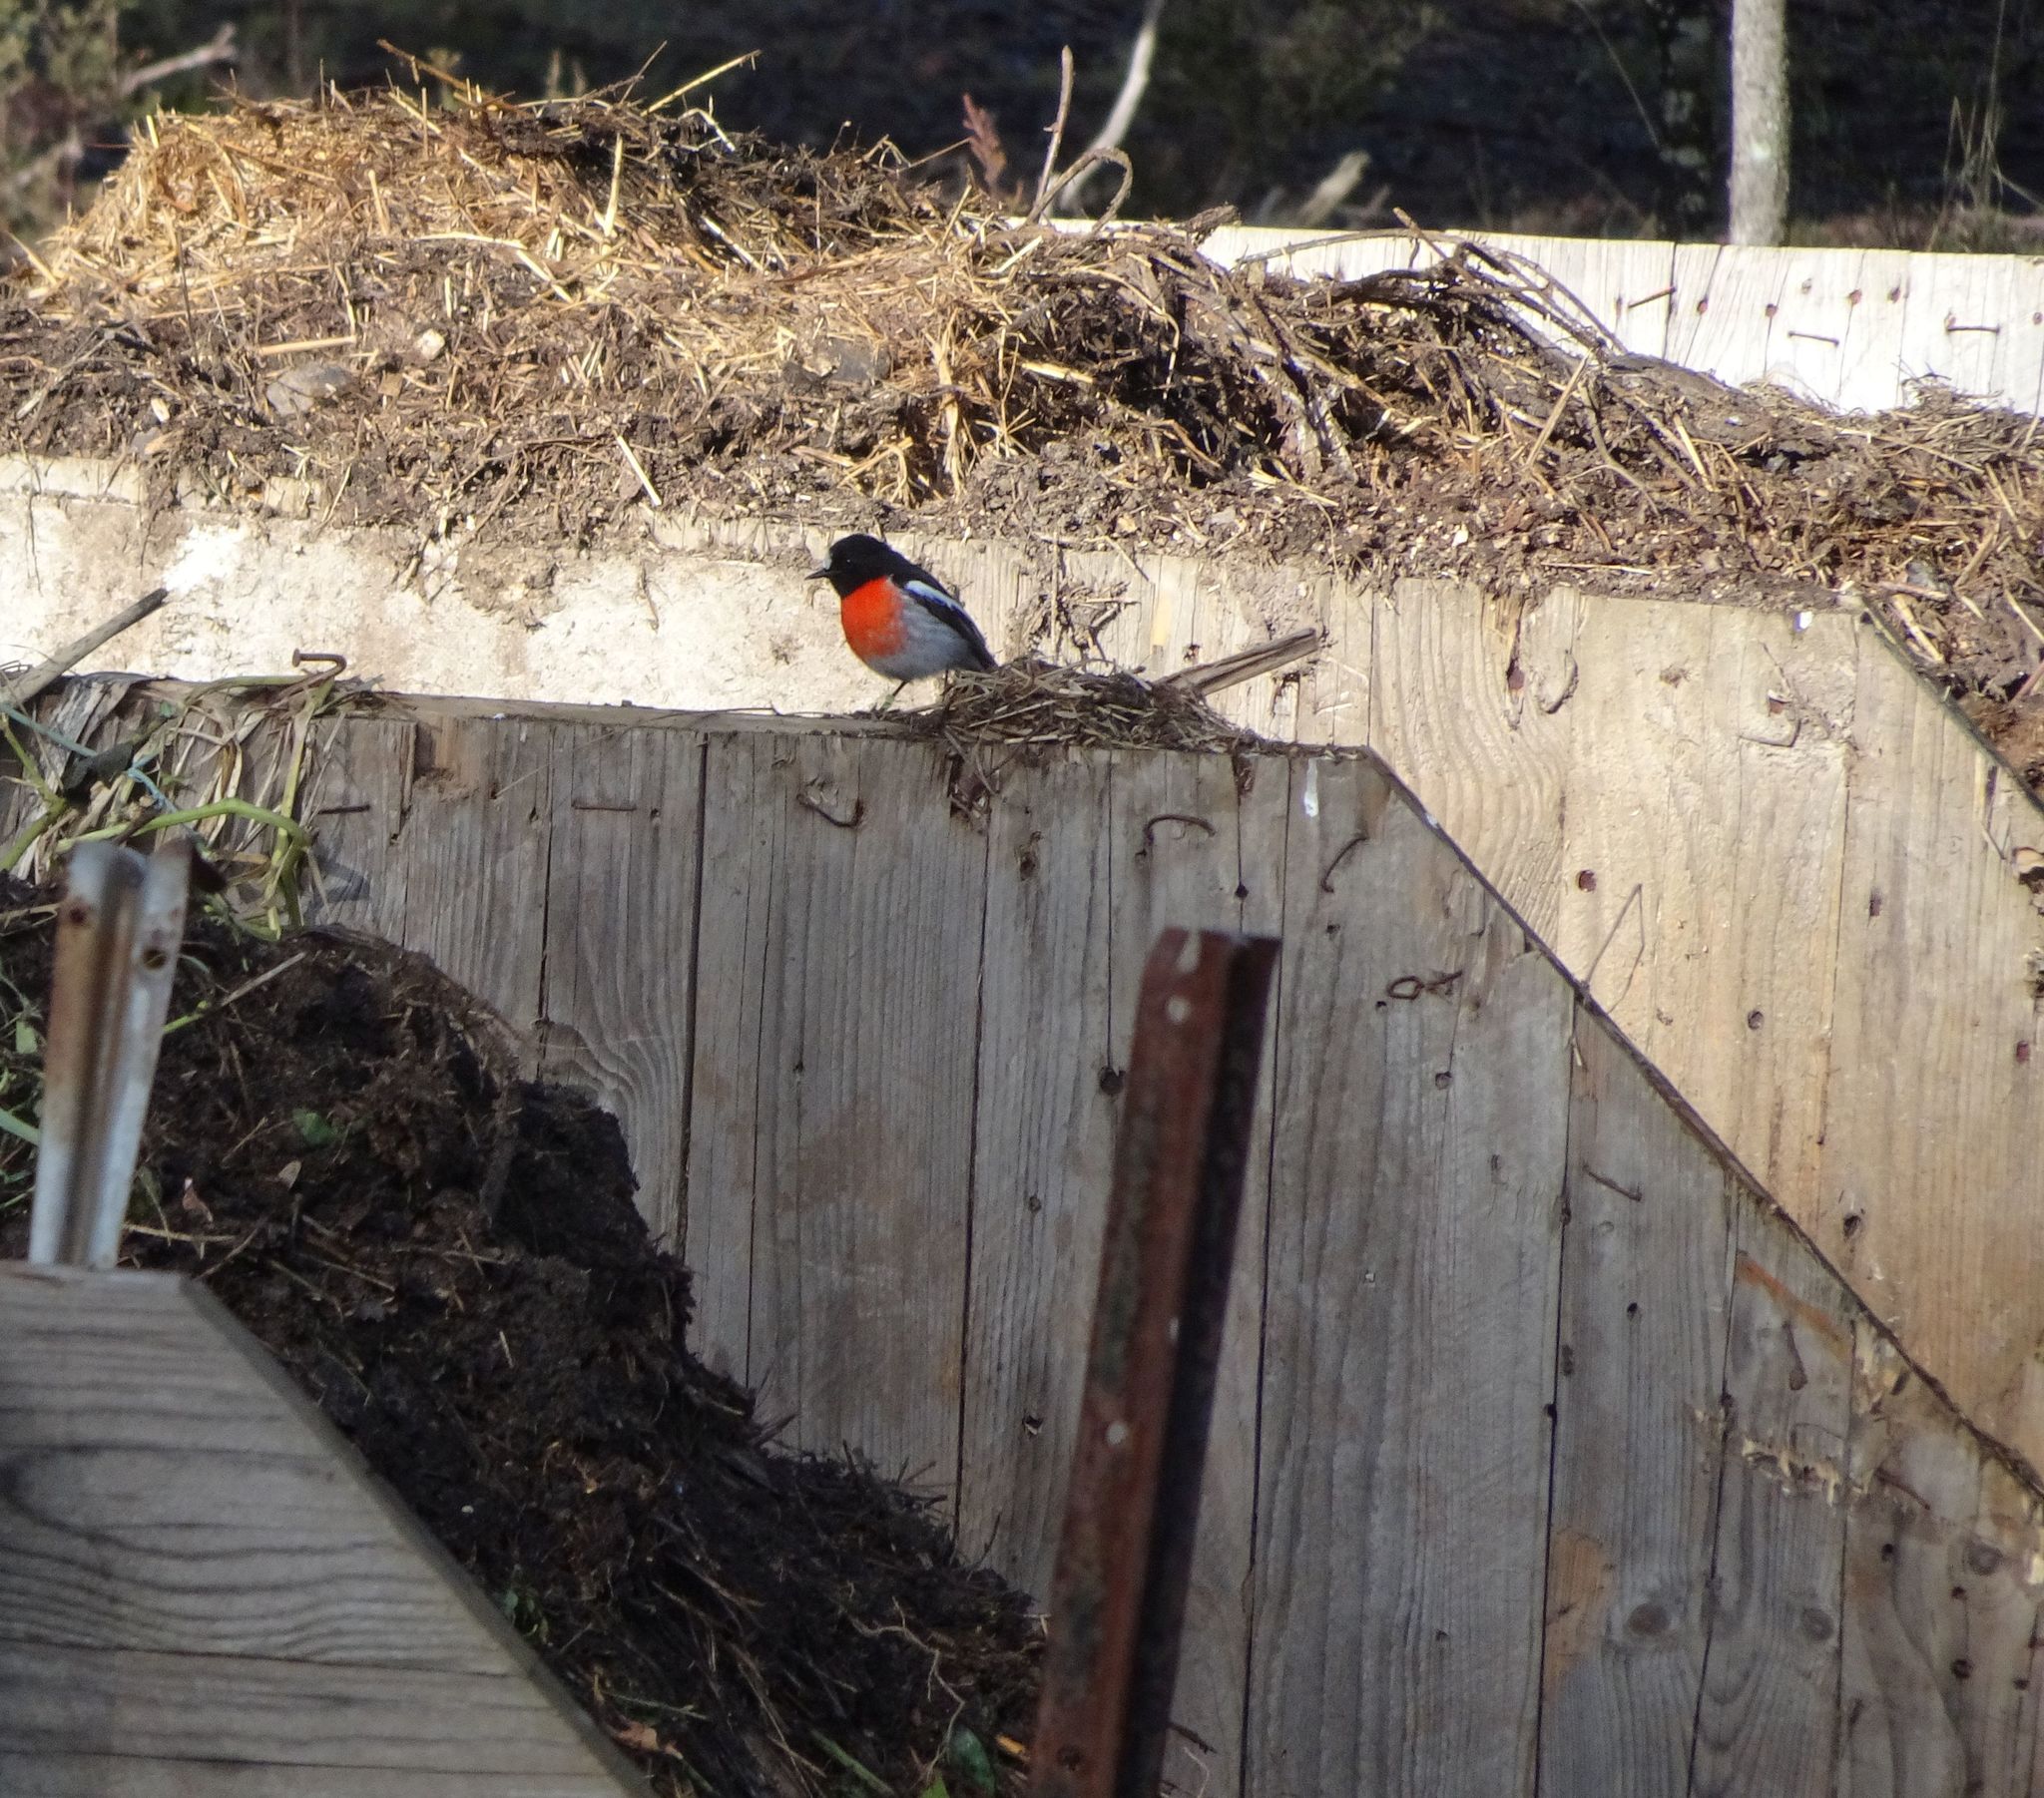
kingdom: Animalia
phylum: Chordata
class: Aves
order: Passeriformes
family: Petroicidae
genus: Petroica
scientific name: Petroica boodang
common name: Scarlet robin
